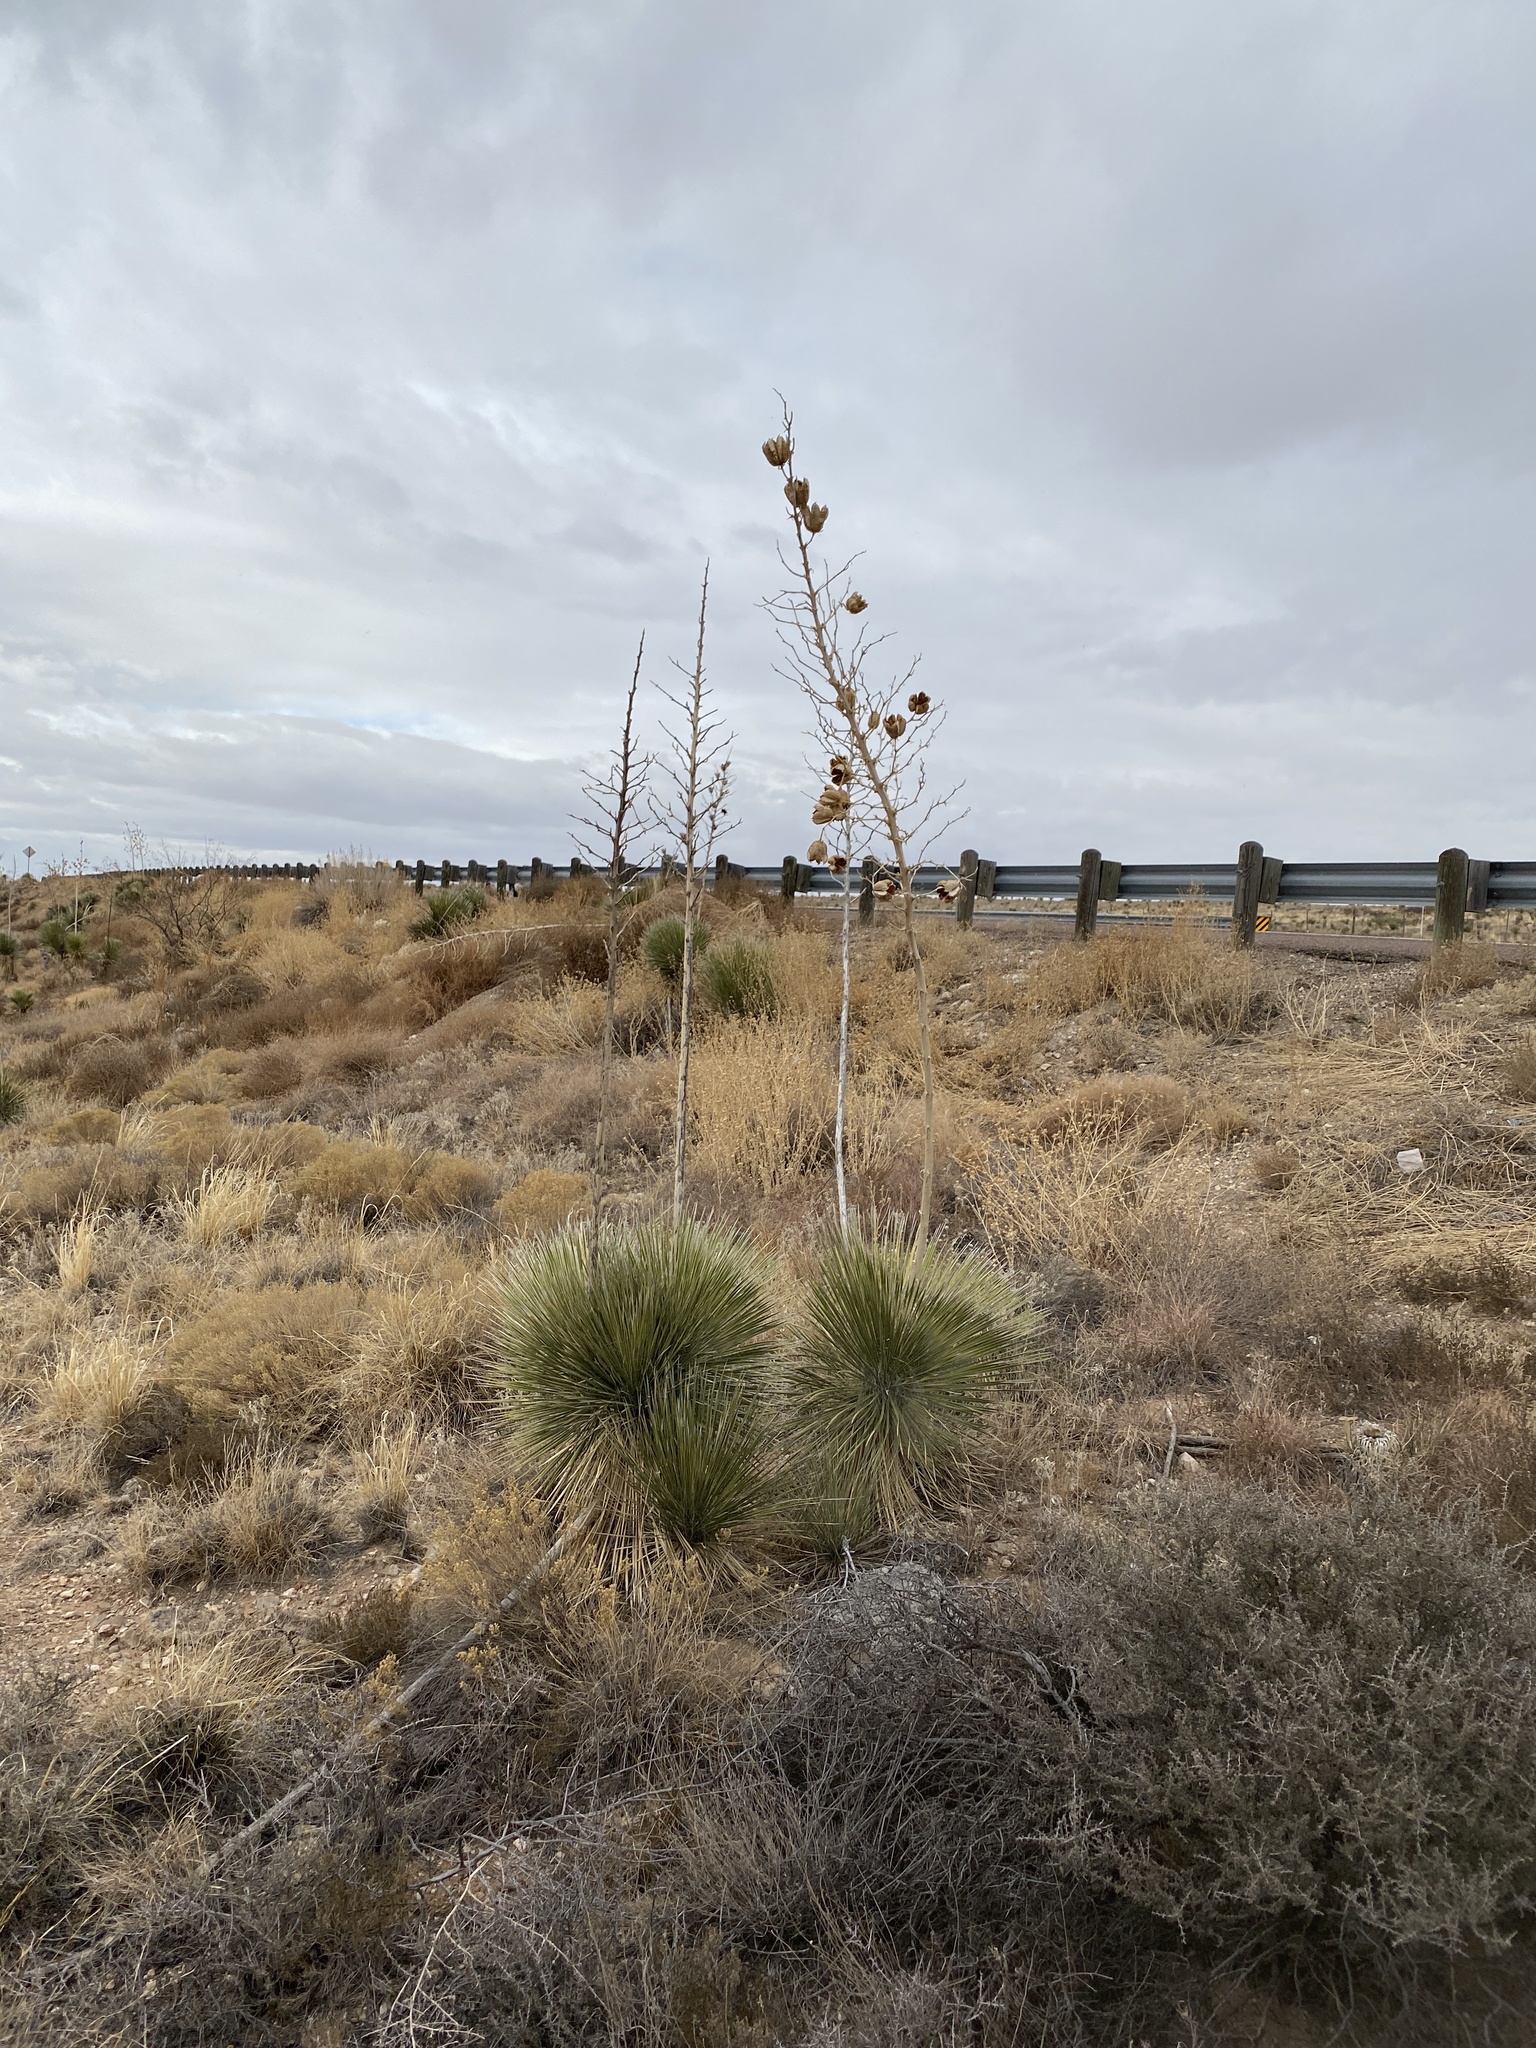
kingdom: Plantae
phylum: Tracheophyta
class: Liliopsida
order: Asparagales
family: Asparagaceae
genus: Yucca
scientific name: Yucca elata
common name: Palmella
